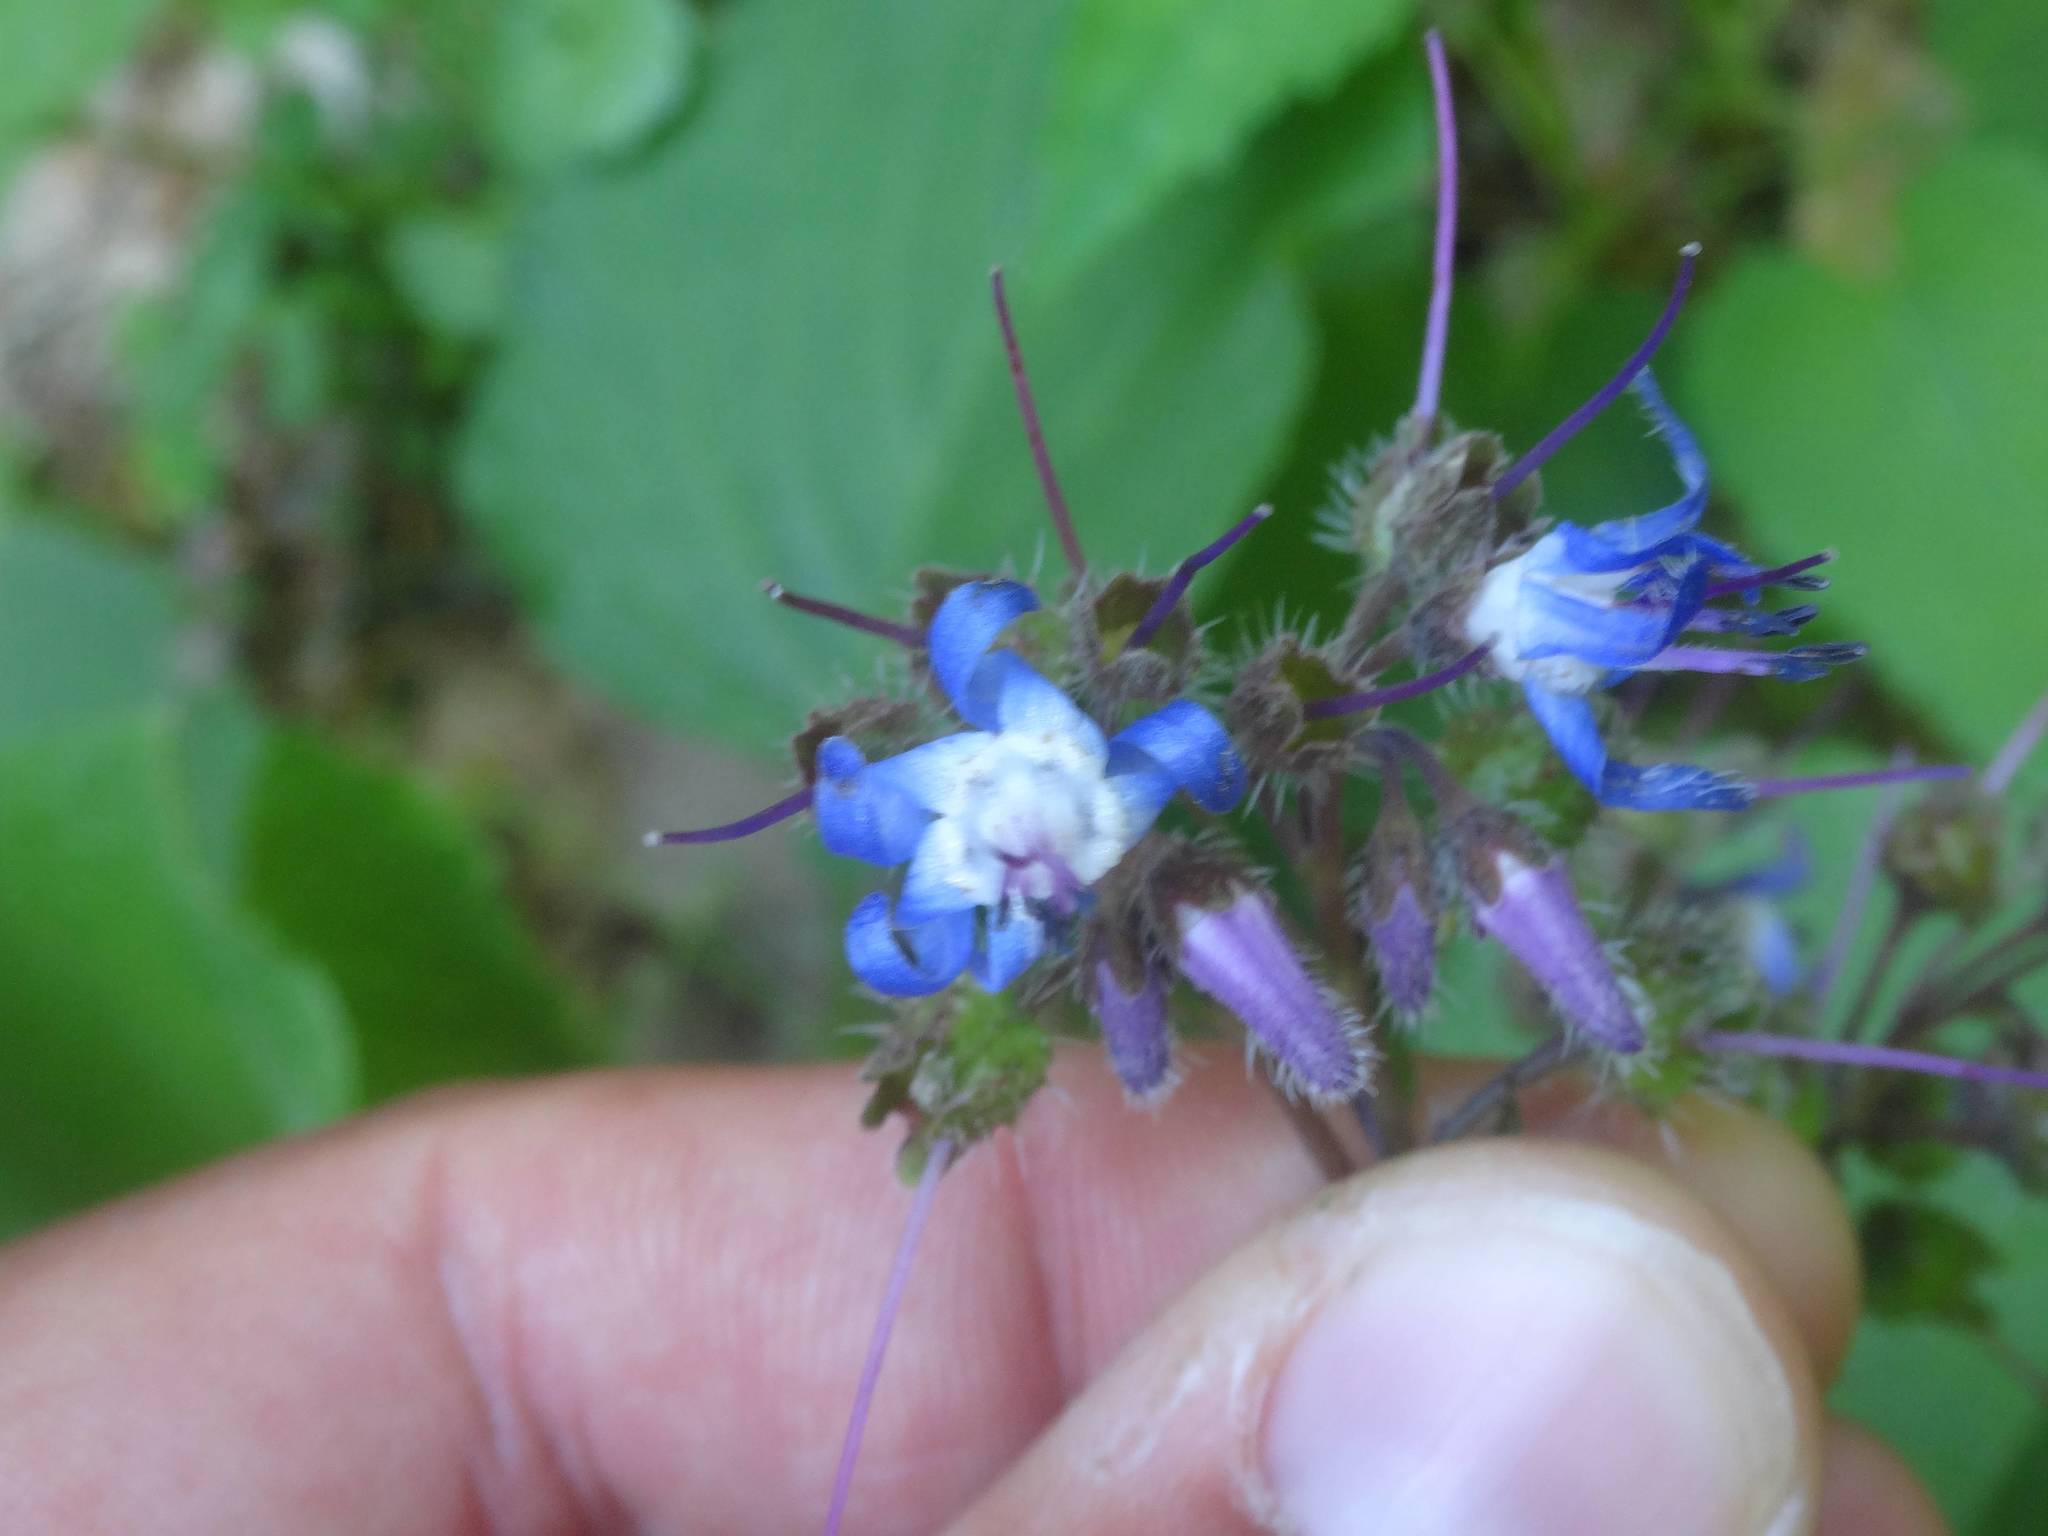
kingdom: Plantae
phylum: Tracheophyta
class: Magnoliopsida
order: Boraginales
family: Boraginaceae
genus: Trachystemon
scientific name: Trachystemon orientale
